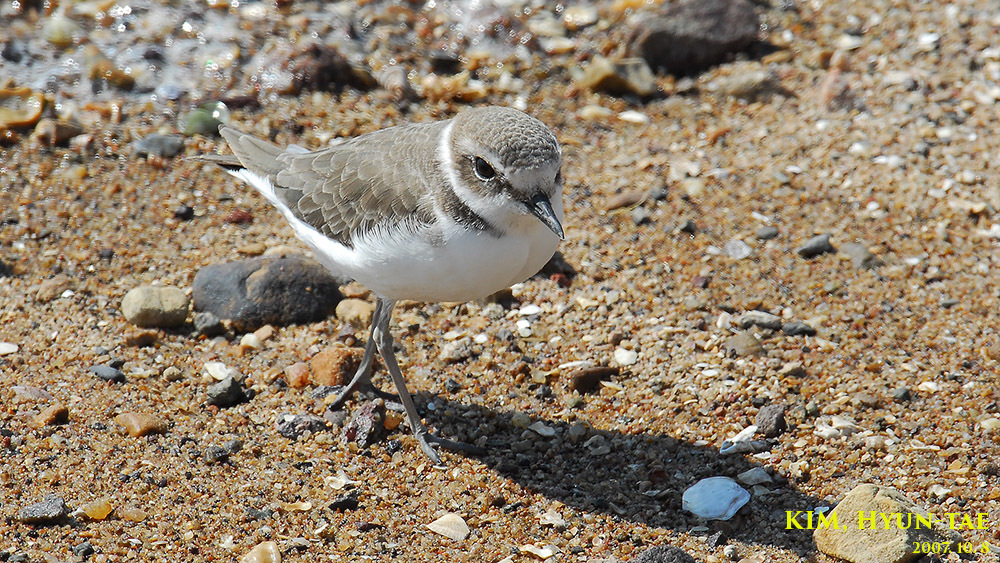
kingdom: Animalia
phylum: Chordata
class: Aves
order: Charadriiformes
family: Charadriidae
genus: Charadrius
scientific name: Charadrius alexandrinus
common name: Kentish plover
